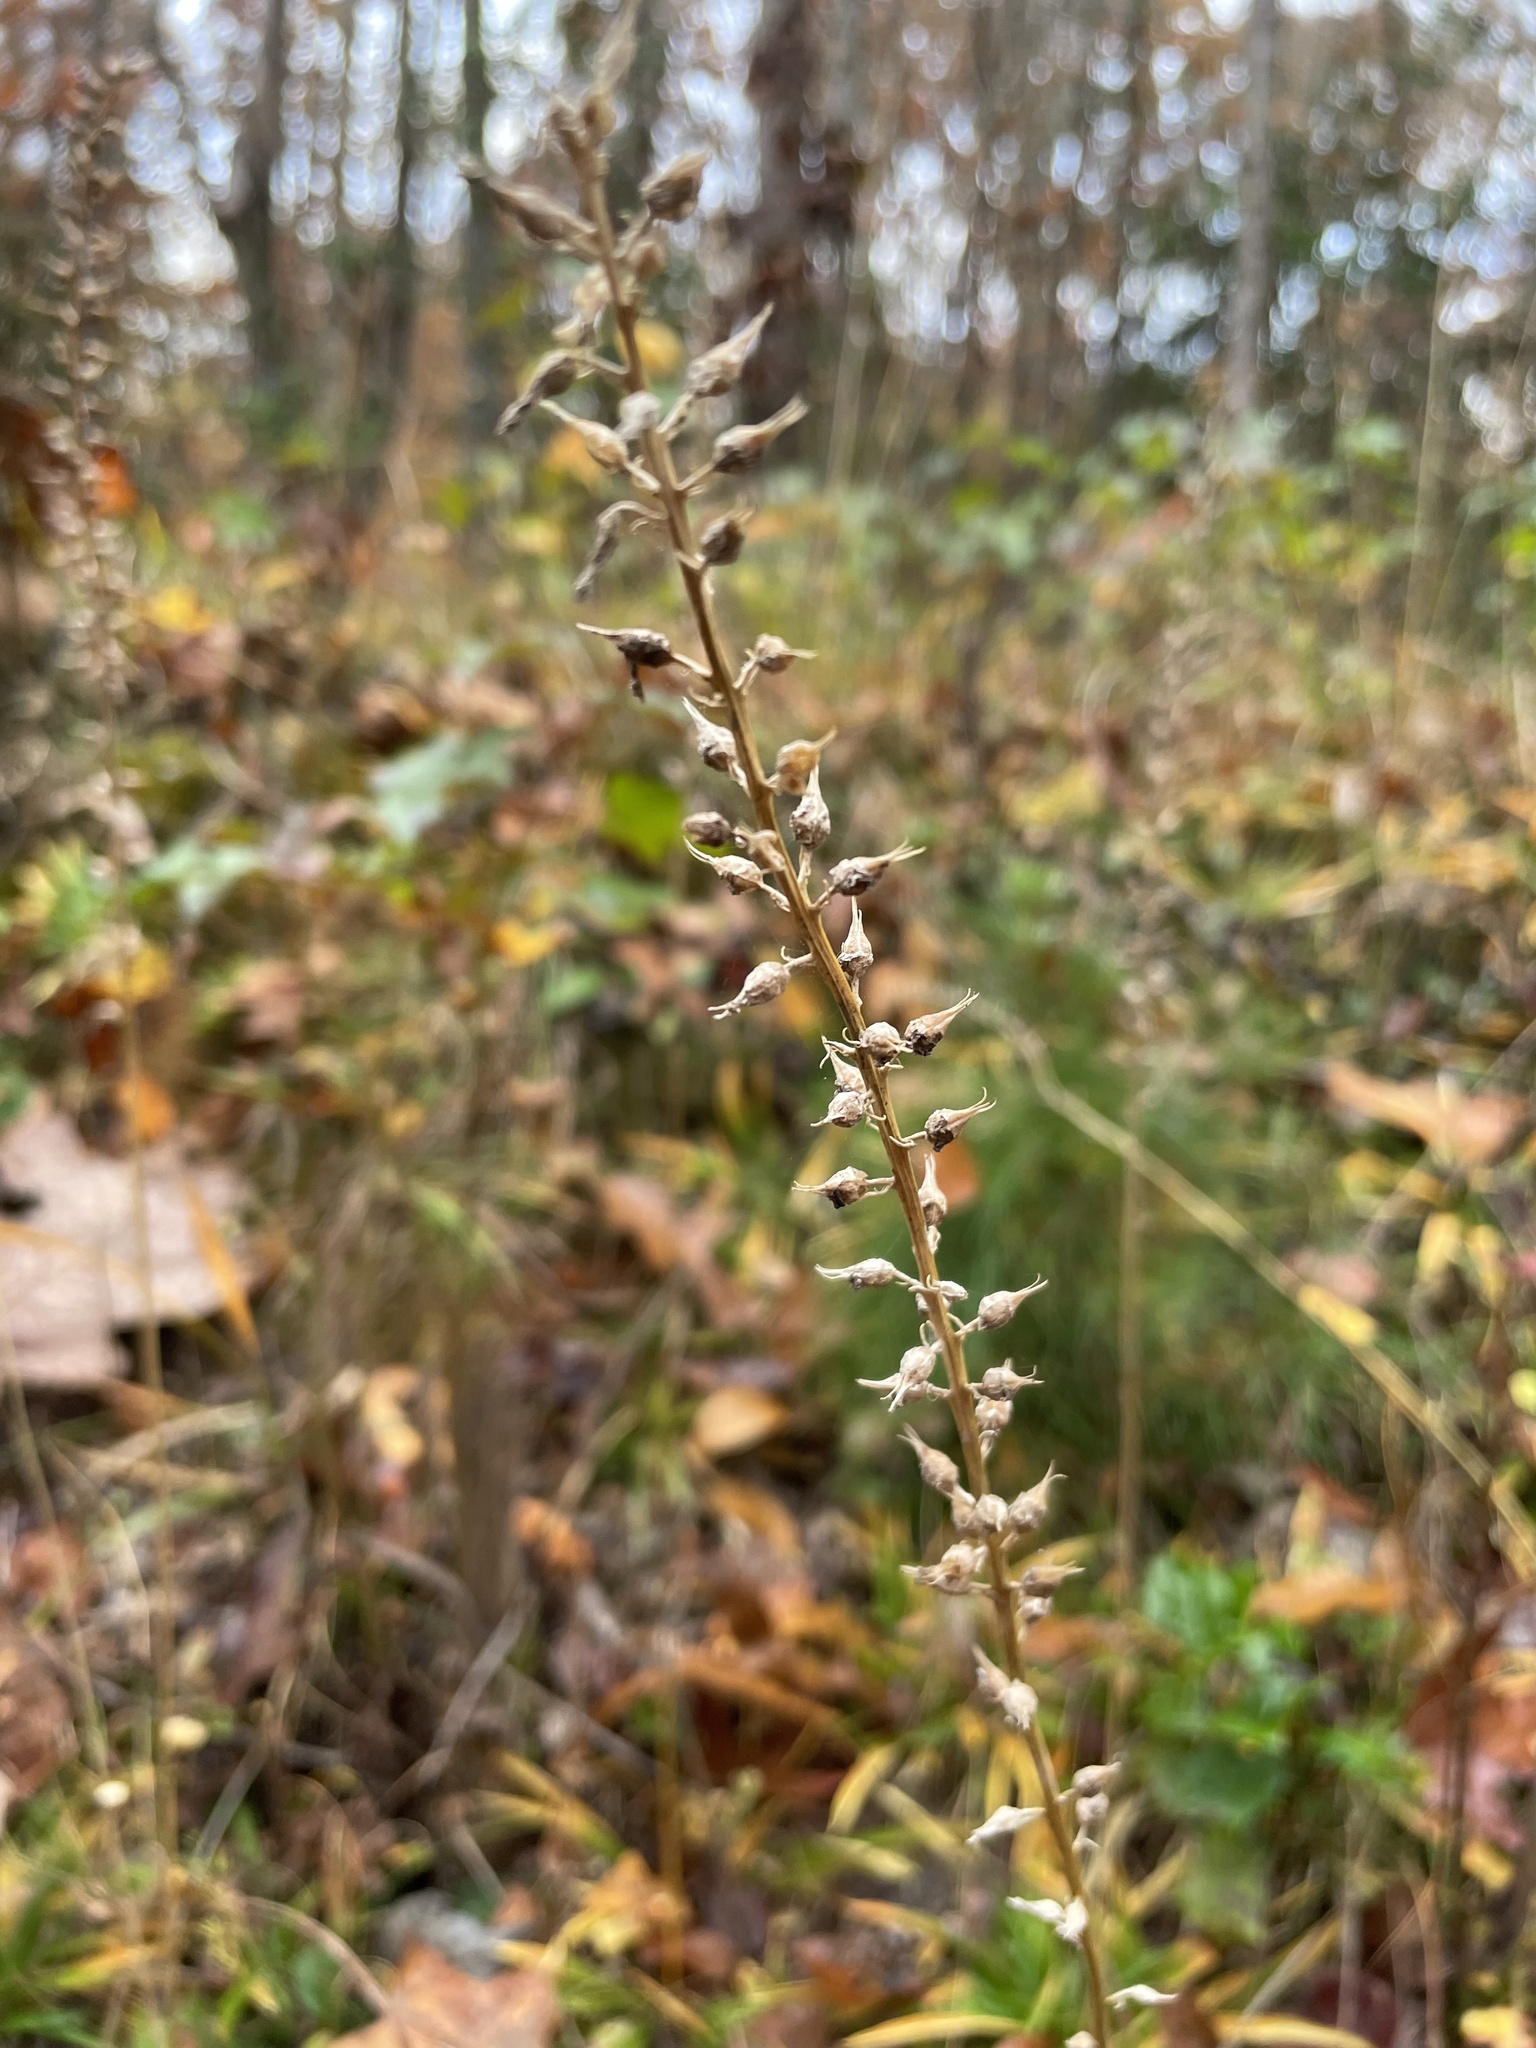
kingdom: Plantae
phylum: Tracheophyta
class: Liliopsida
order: Dioscoreales
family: Nartheciaceae
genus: Aletris
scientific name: Aletris farinosa
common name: Colicroot
